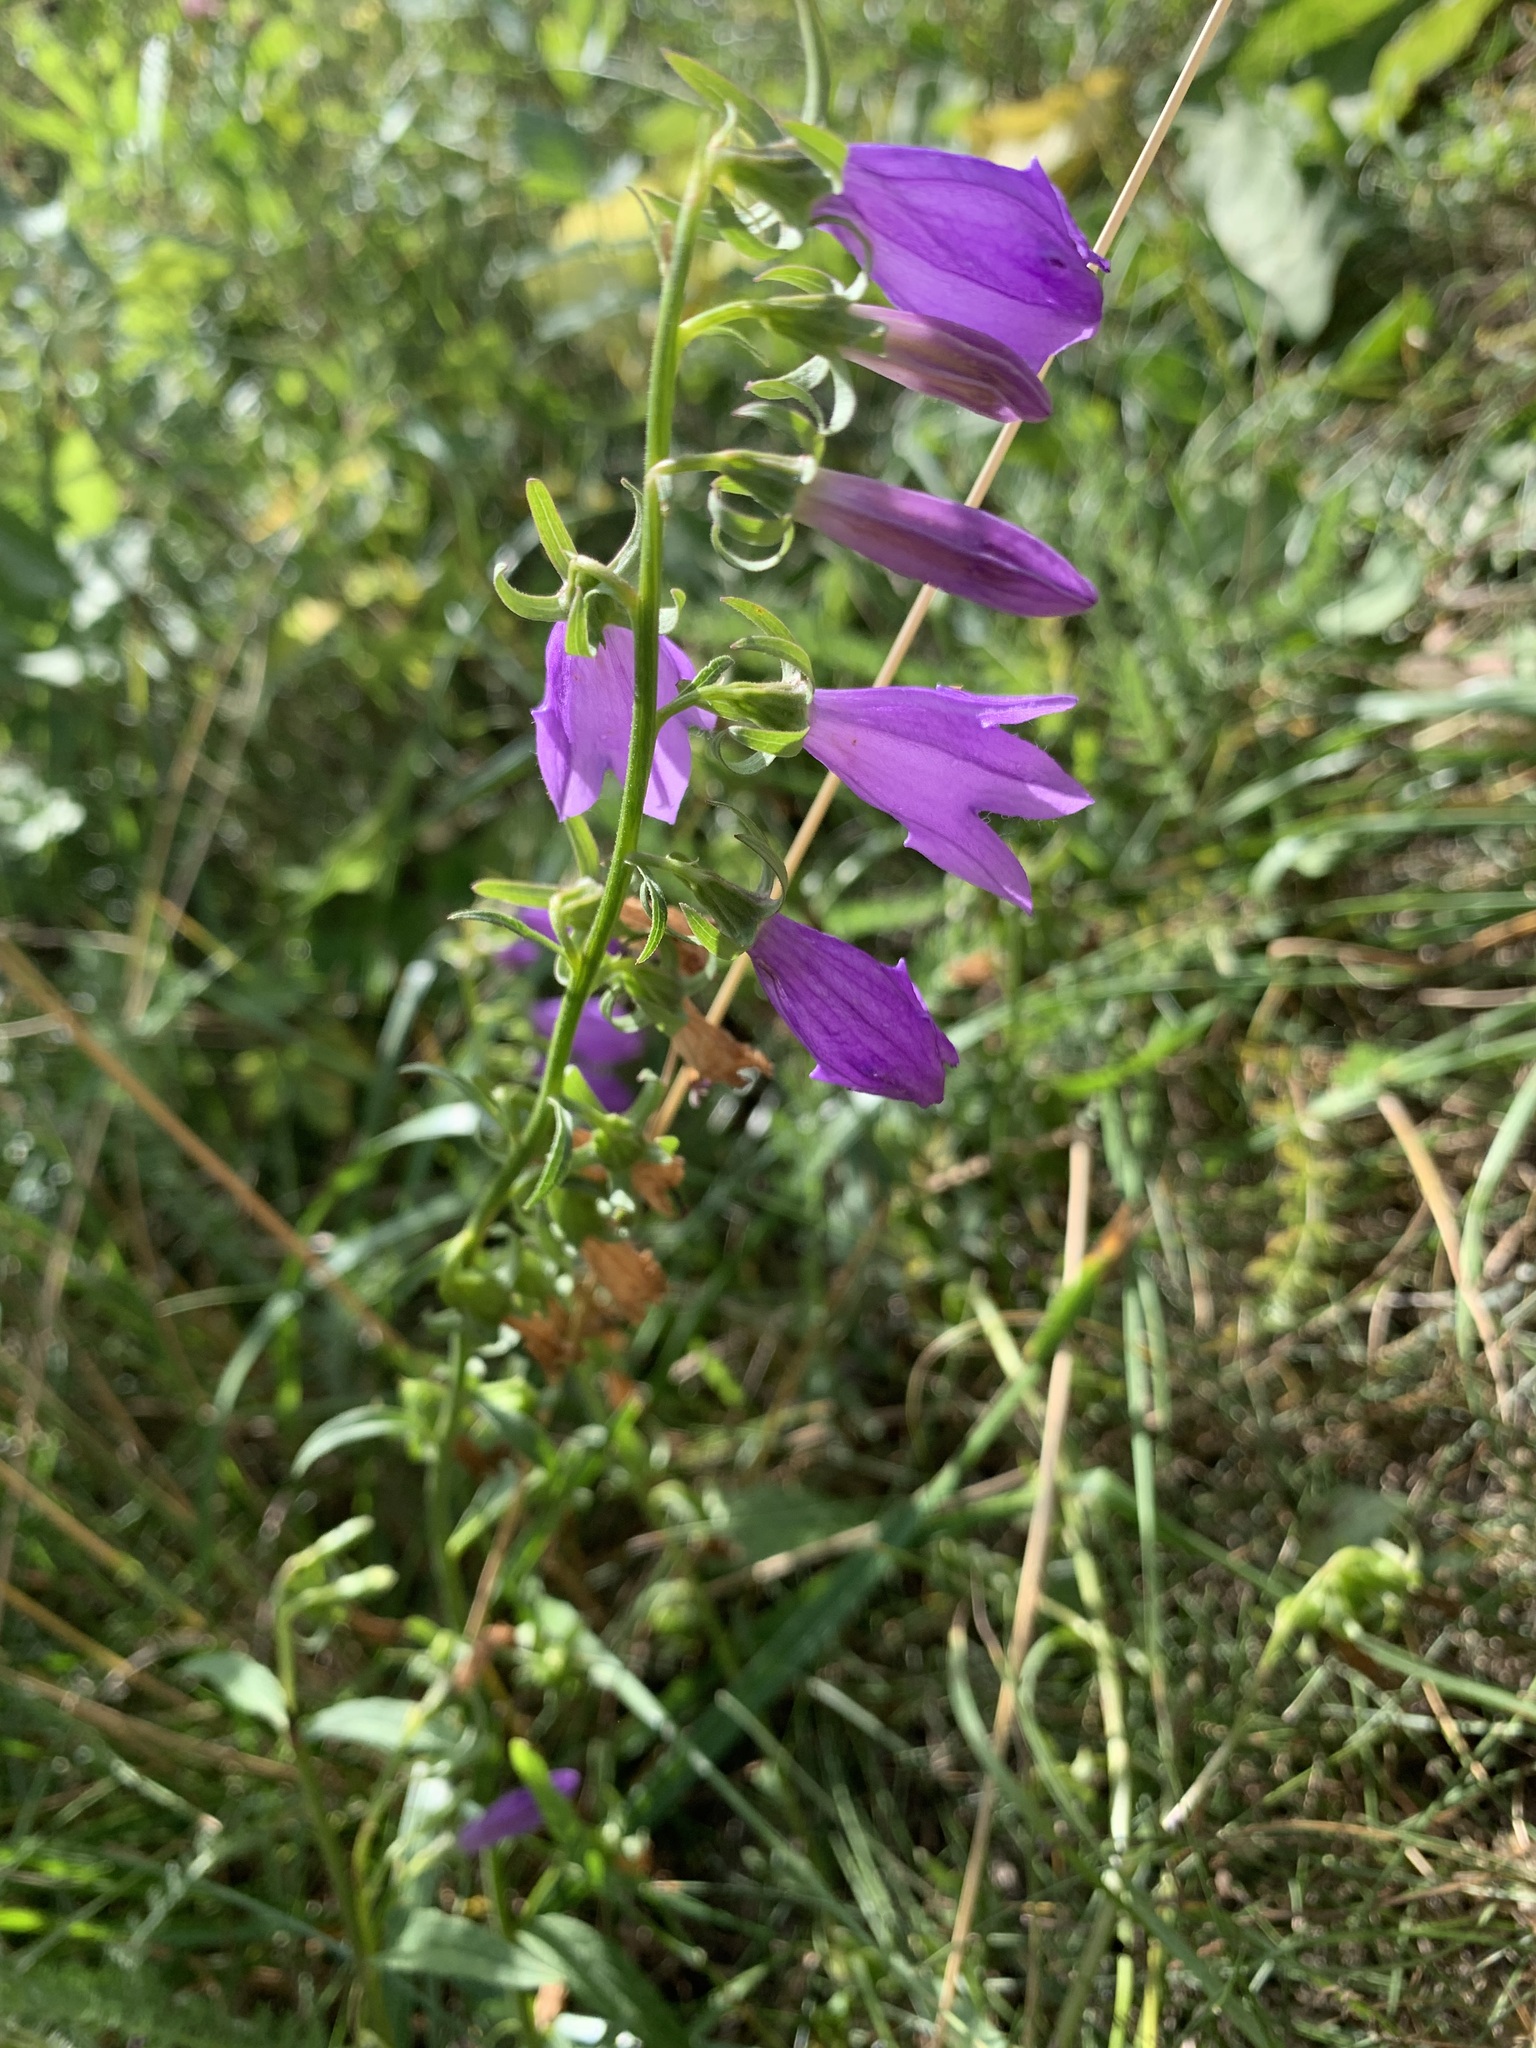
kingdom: Plantae
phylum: Tracheophyta
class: Magnoliopsida
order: Asterales
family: Campanulaceae
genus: Campanula
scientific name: Campanula rapunculoides
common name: Creeping bellflower
